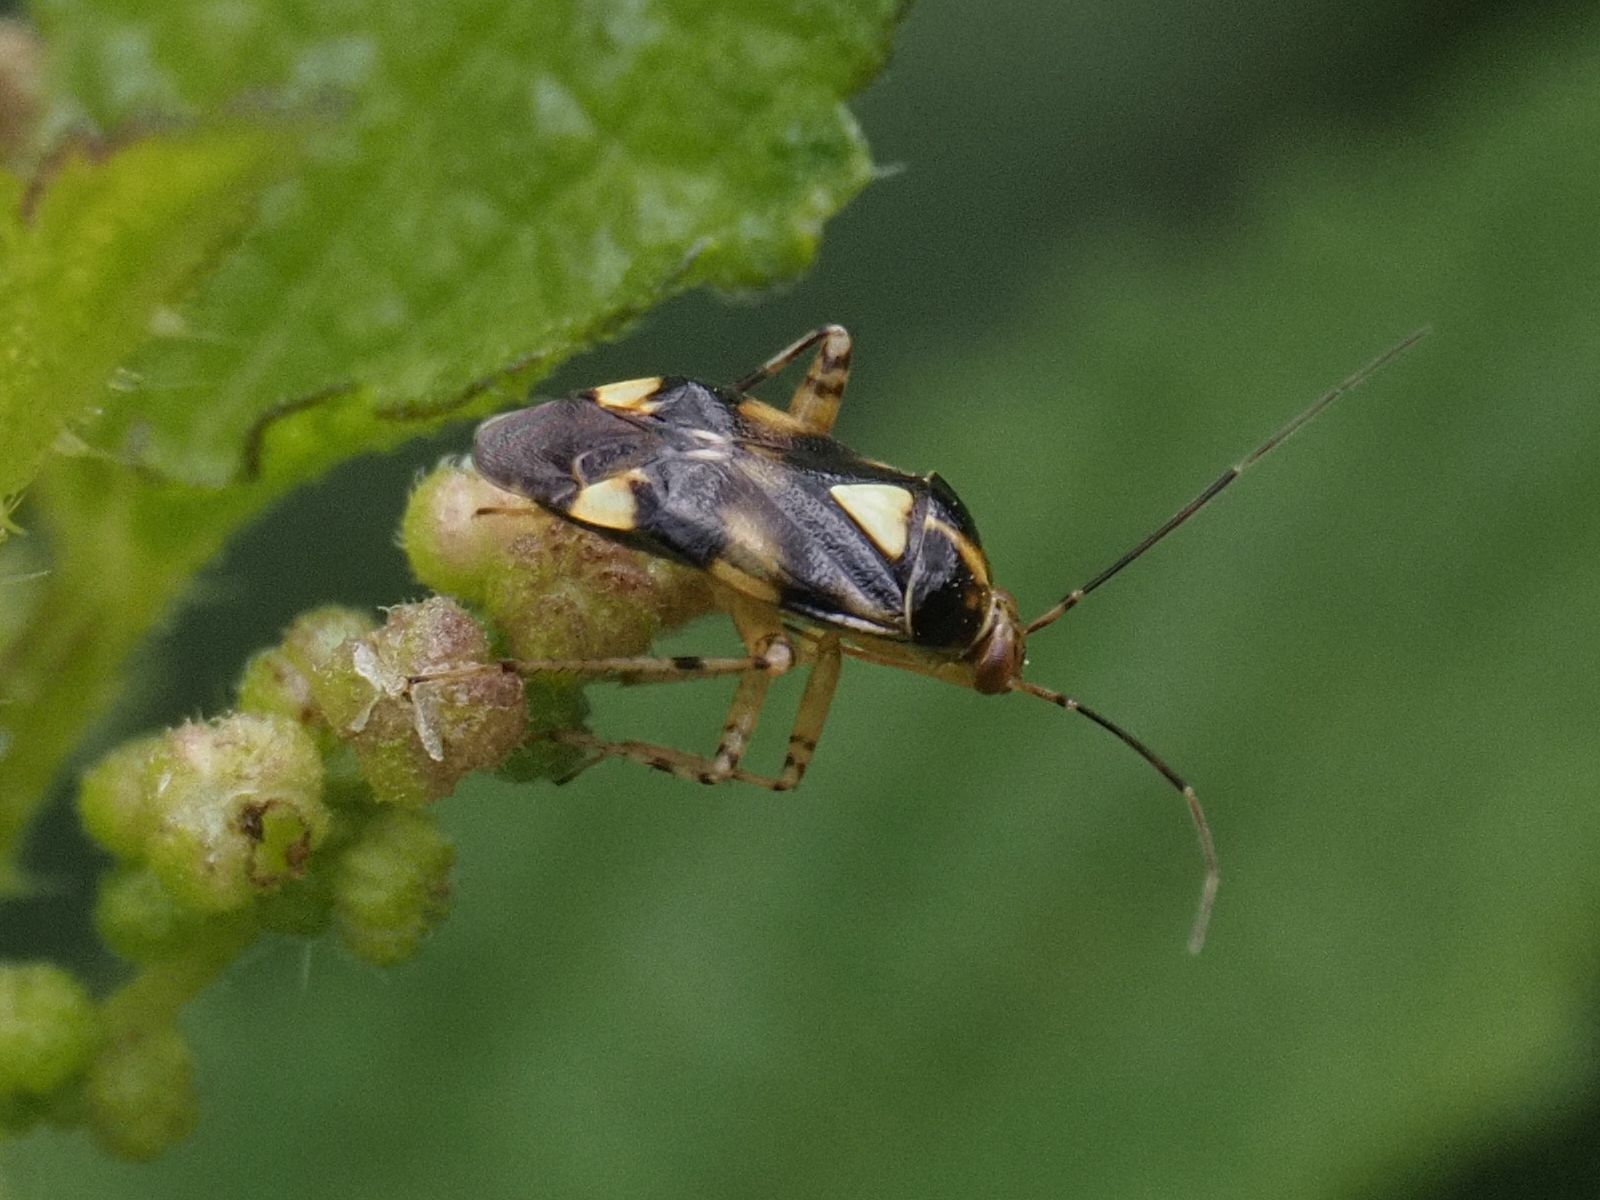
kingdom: Animalia
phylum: Arthropoda
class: Insecta
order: Hemiptera
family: Miridae
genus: Liocoris
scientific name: Liocoris tripustulatus
